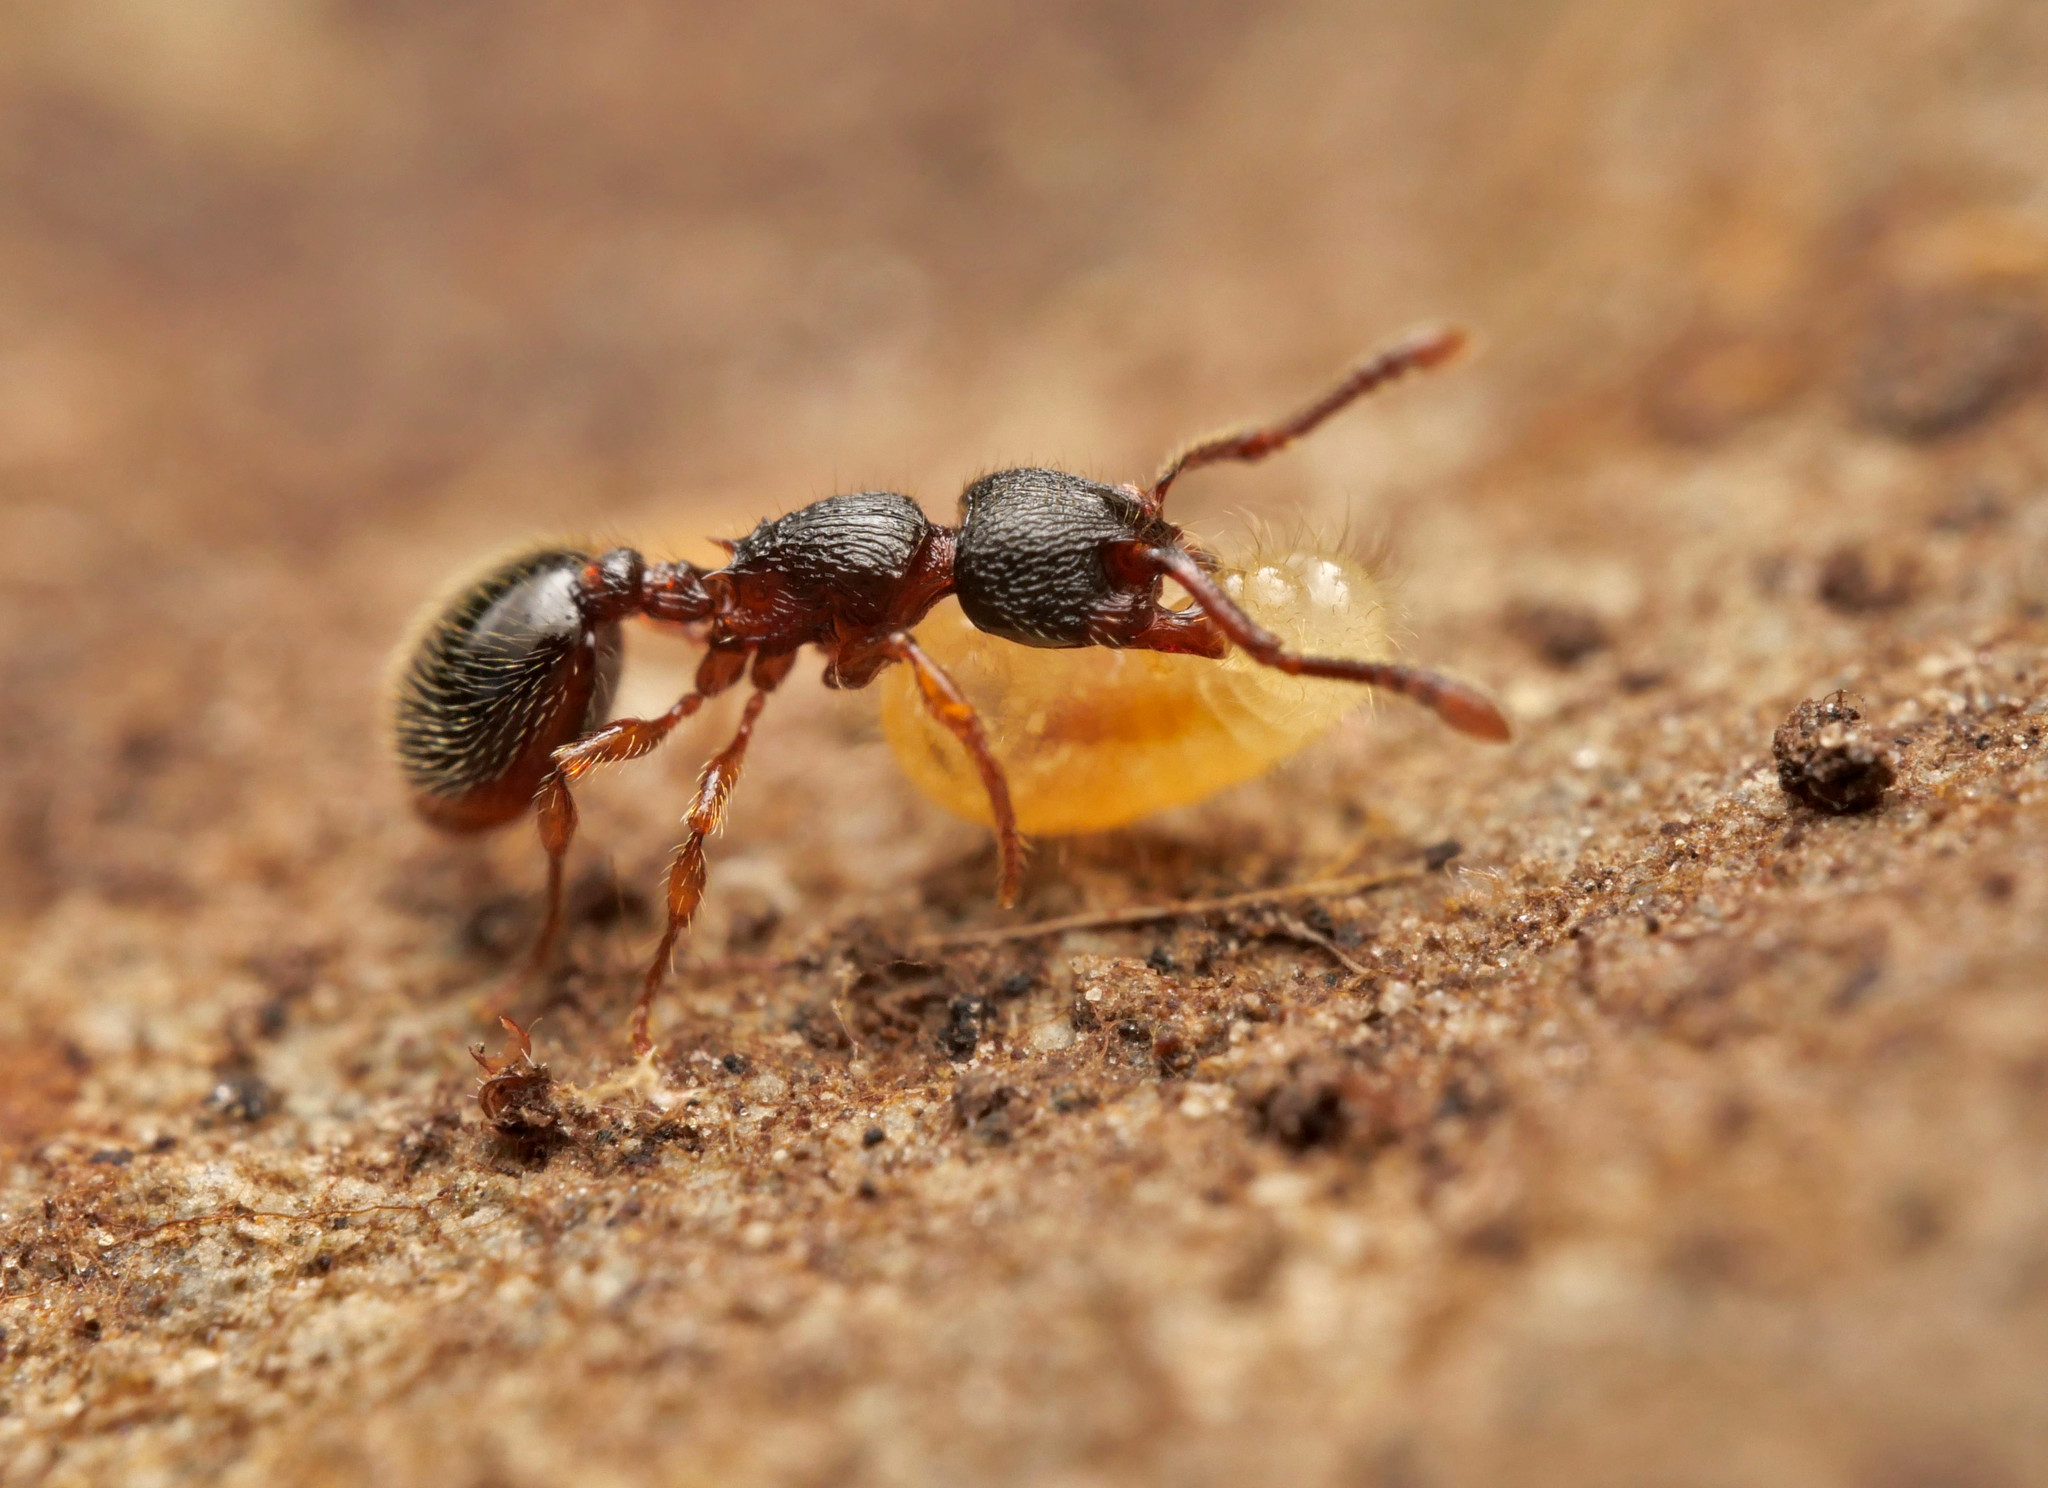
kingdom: Animalia
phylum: Arthropoda
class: Insecta
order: Hymenoptera
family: Formicidae
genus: Myrmecina
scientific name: Myrmecina graminicola
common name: Grass ant
